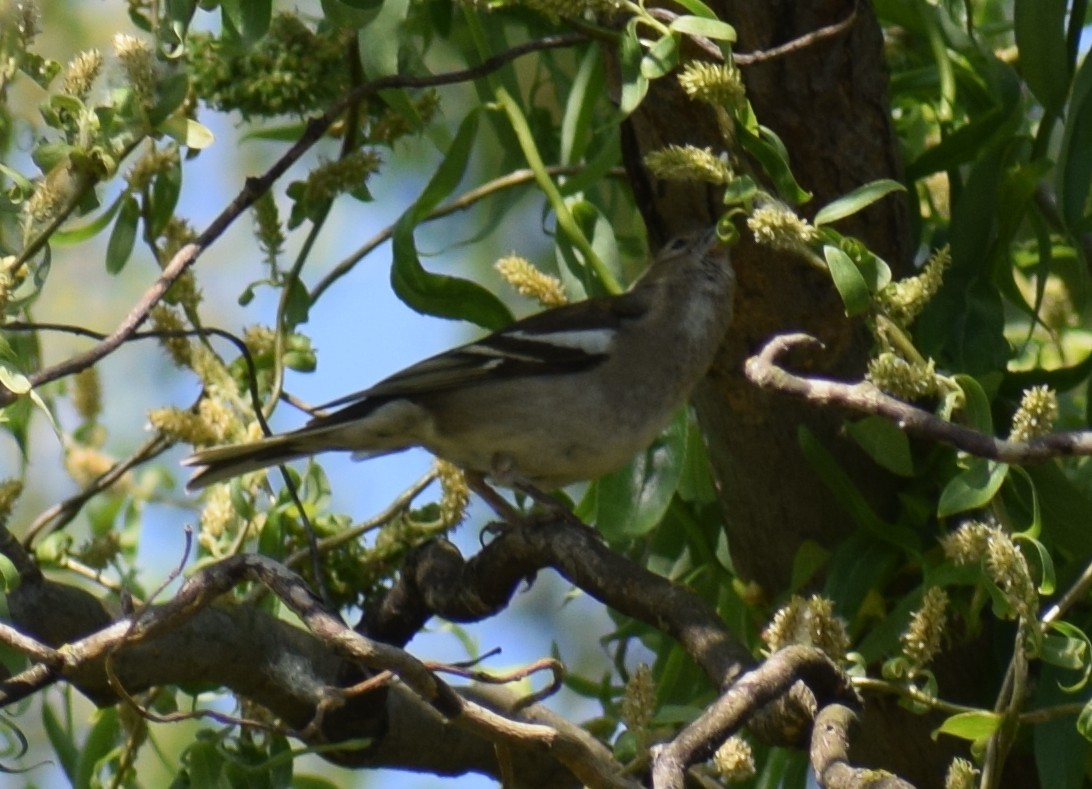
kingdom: Animalia
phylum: Chordata
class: Aves
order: Passeriformes
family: Fringillidae
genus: Fringilla
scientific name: Fringilla coelebs
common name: Common chaffinch
